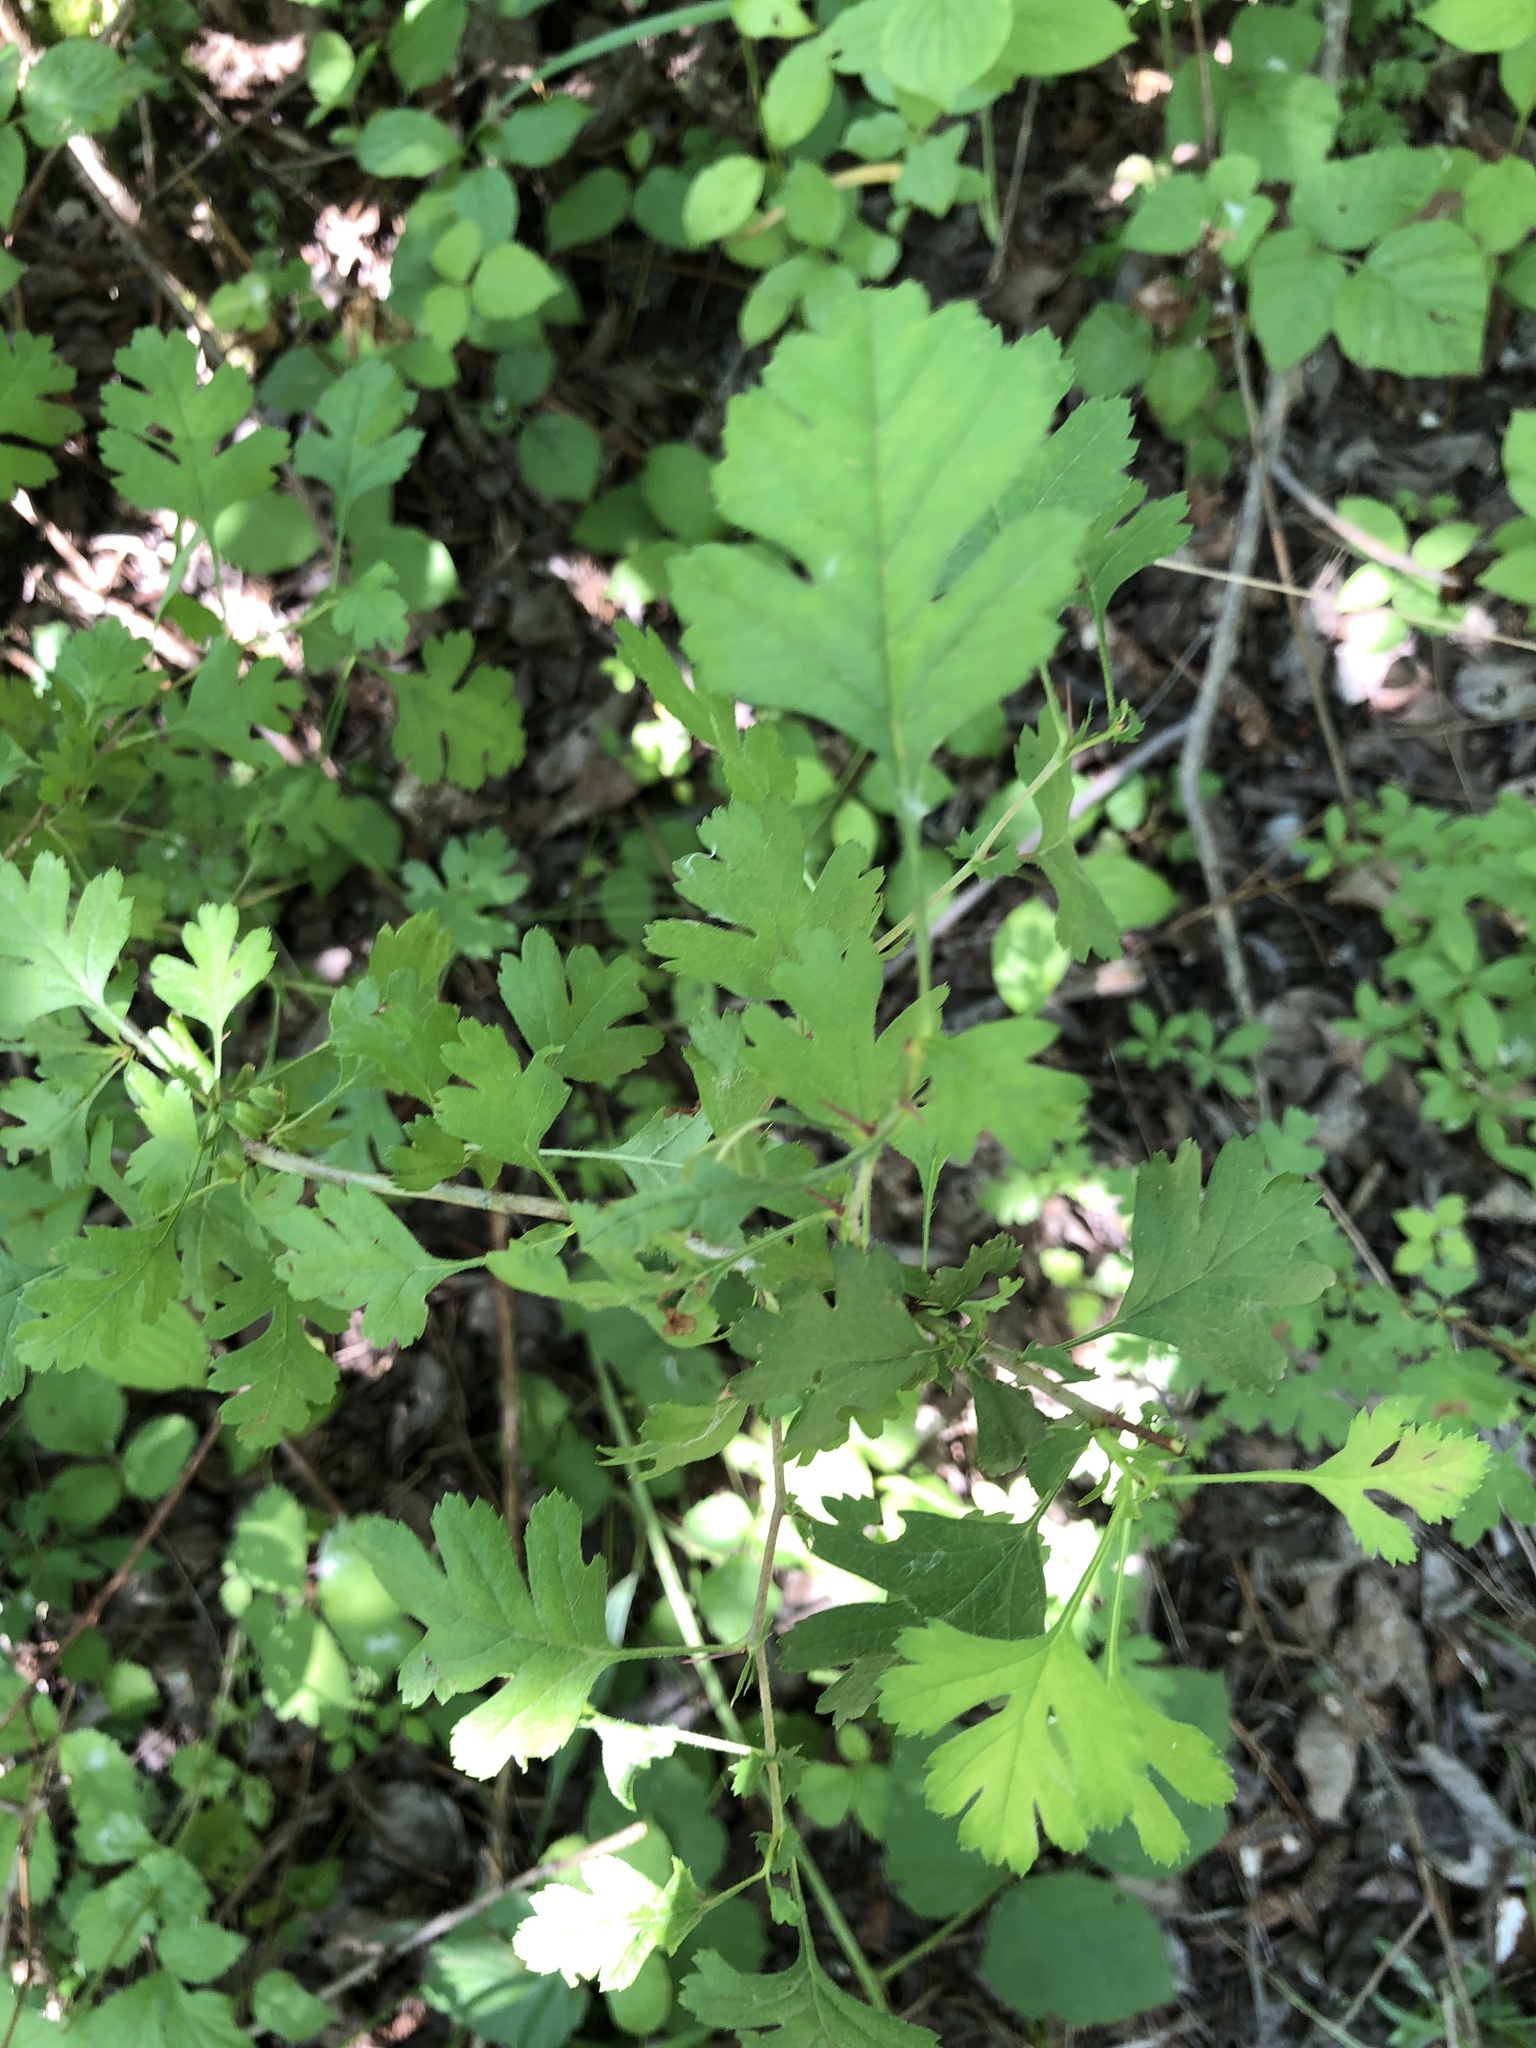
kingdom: Plantae
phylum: Tracheophyta
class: Magnoliopsida
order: Rosales
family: Rosaceae
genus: Crataegus
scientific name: Crataegus monogyna
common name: Hawthorn
